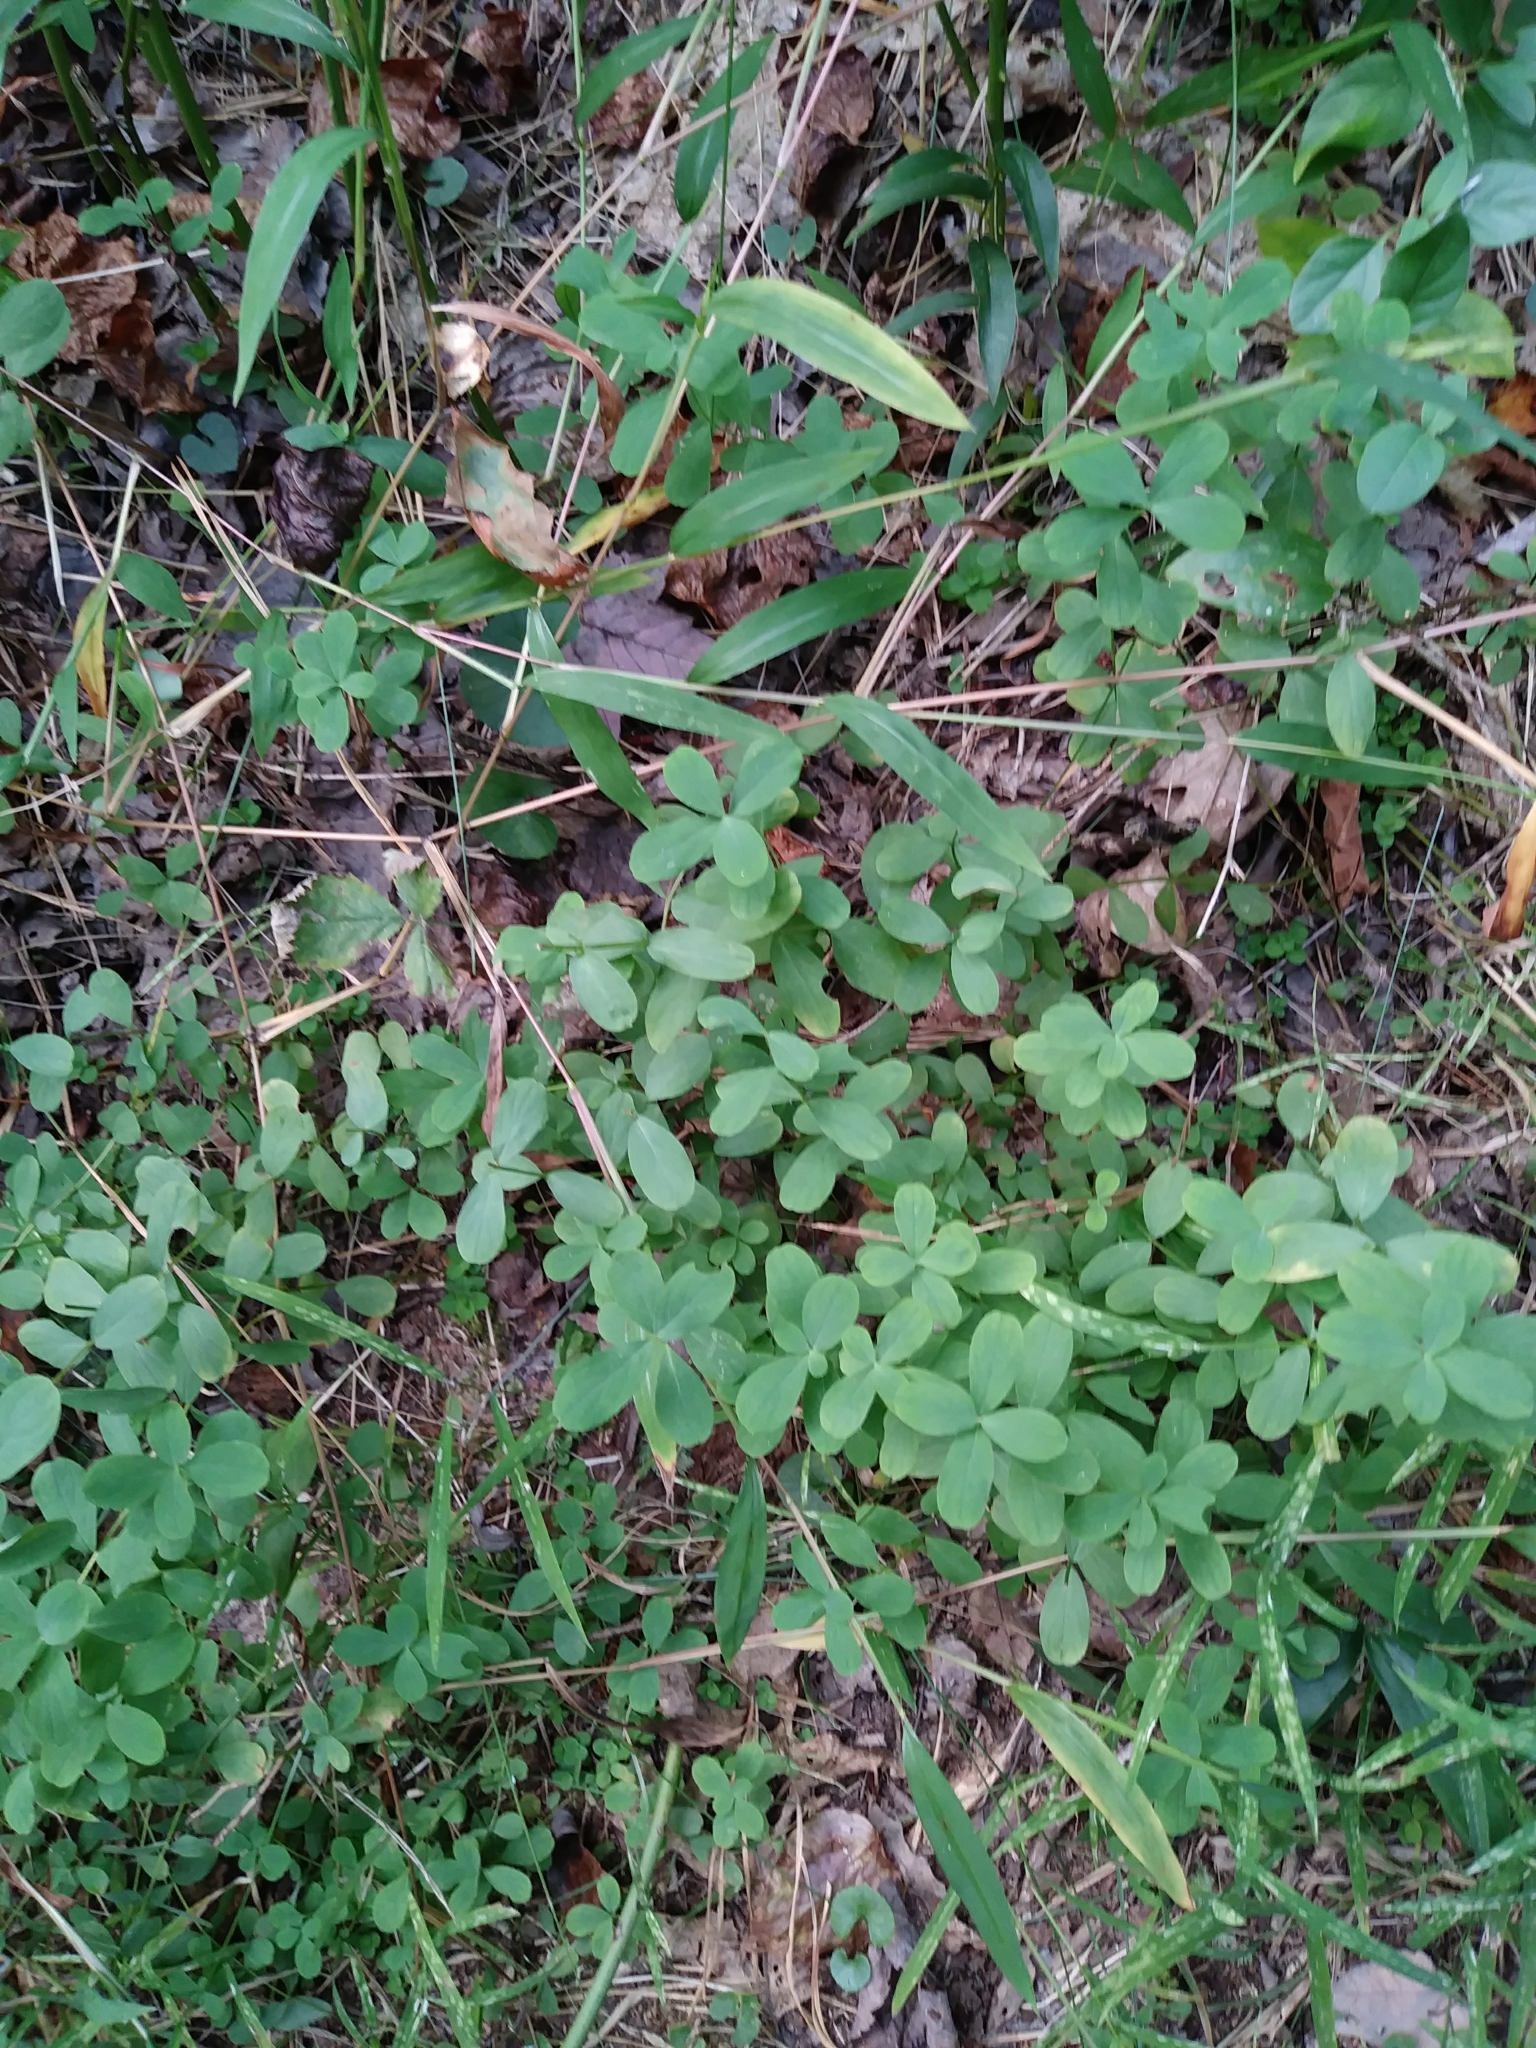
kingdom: Plantae
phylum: Tracheophyta
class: Magnoliopsida
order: Malpighiales
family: Hypericaceae
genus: Hypericum
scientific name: Hypericum hypericoides
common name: St. andrew's cross
